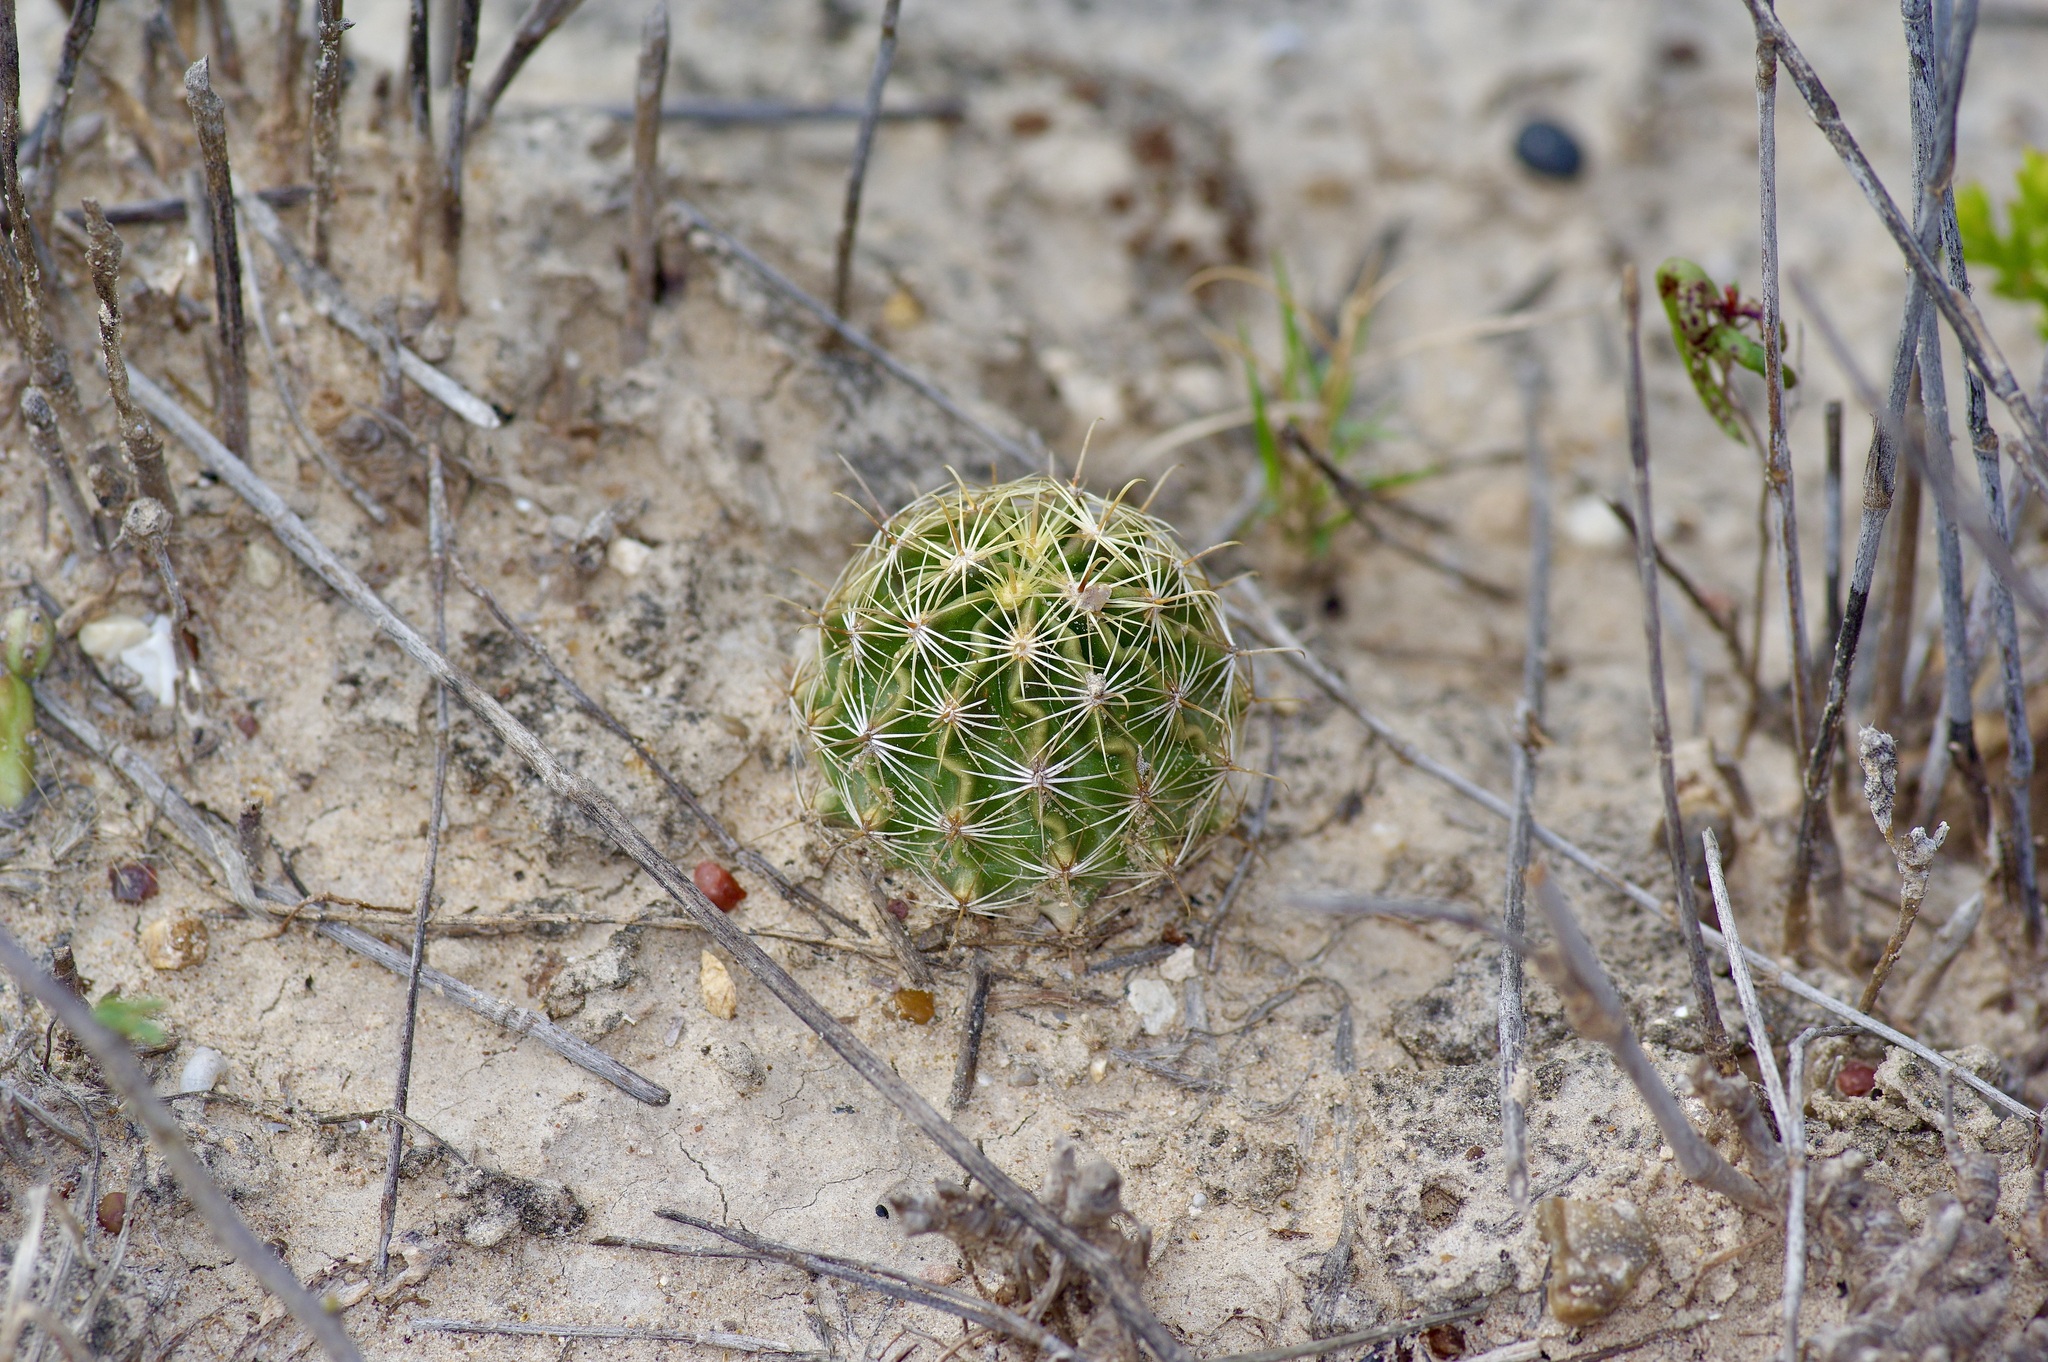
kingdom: Plantae
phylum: Tracheophyta
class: Magnoliopsida
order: Caryophyllales
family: Cactaceae
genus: Sclerocactus
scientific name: Sclerocactus scheerii
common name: Scheer's fish-hook cactus
